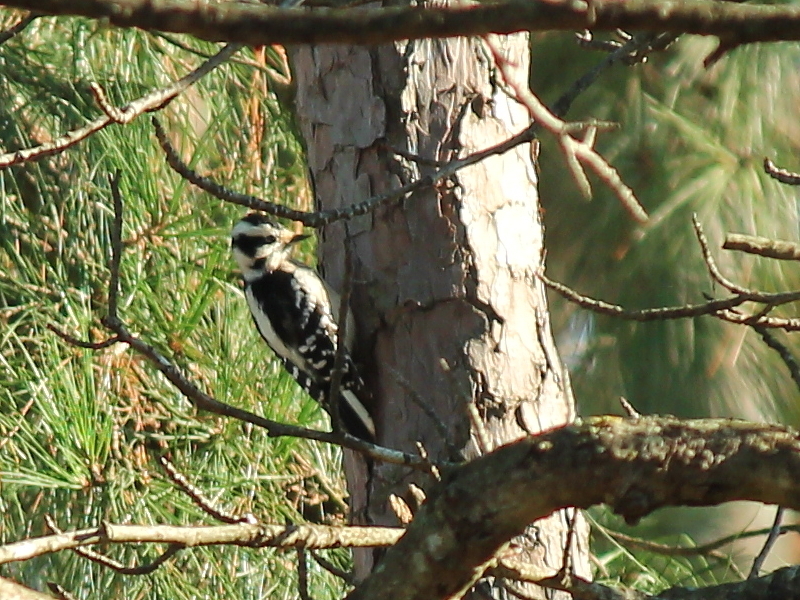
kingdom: Animalia
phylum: Chordata
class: Aves
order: Piciformes
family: Picidae
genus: Dryobates
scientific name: Dryobates pubescens
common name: Downy woodpecker
